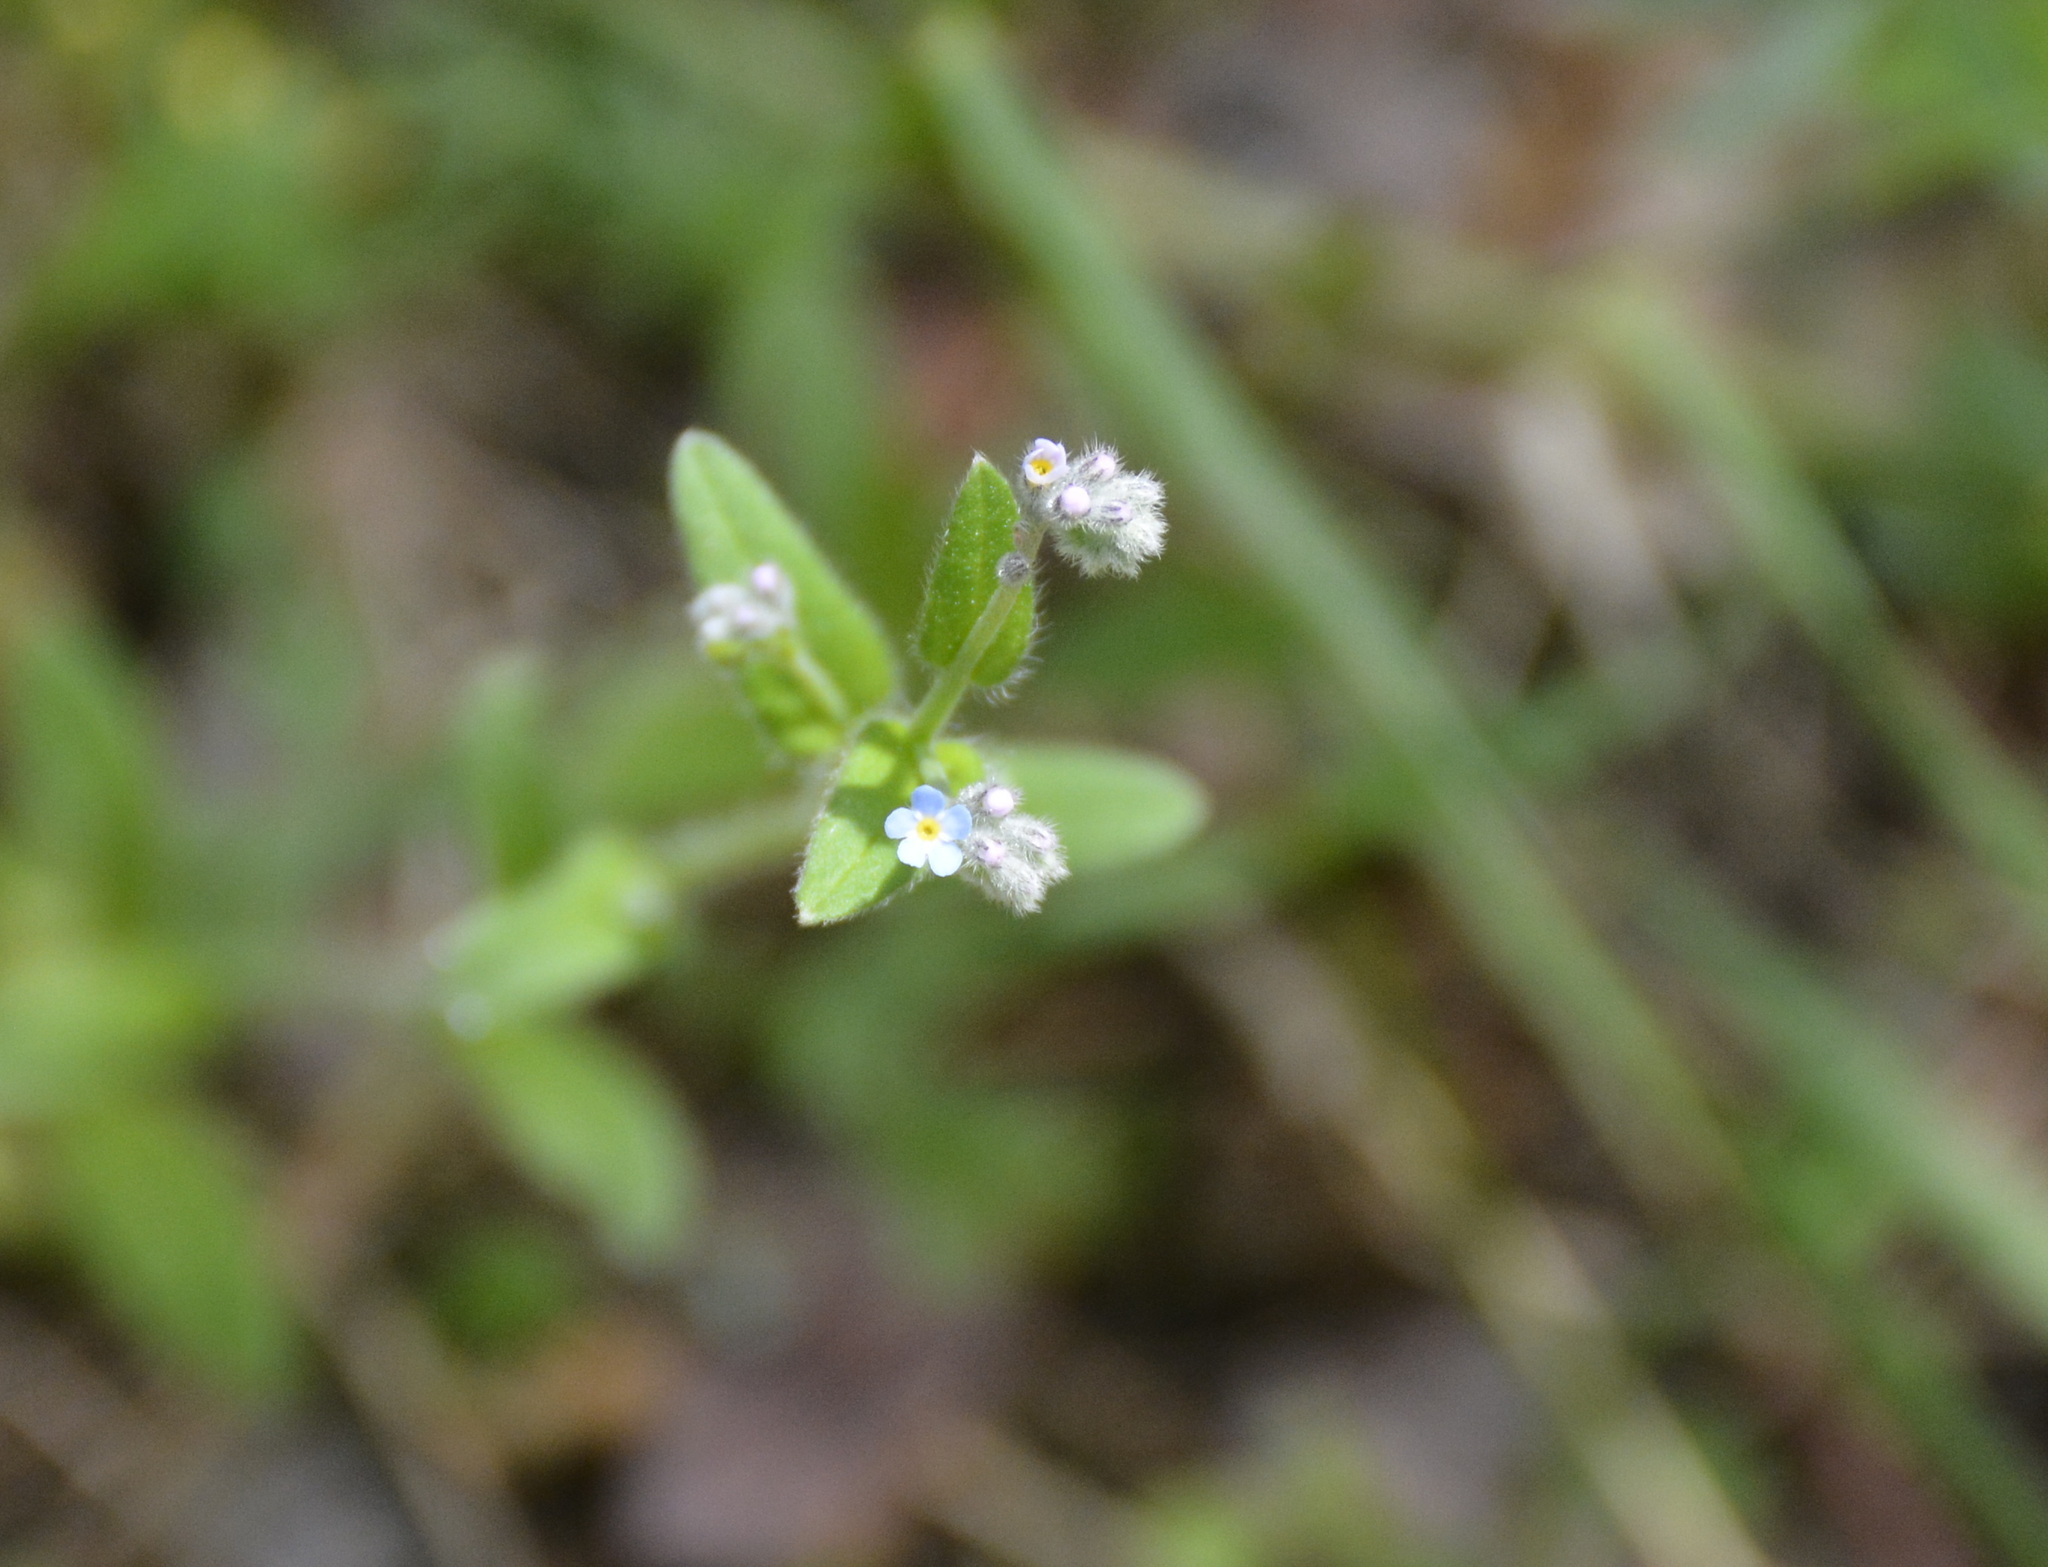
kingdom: Plantae
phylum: Tracheophyta
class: Magnoliopsida
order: Boraginales
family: Boraginaceae
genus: Myosotis
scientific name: Myosotis arvensis
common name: Field forget-me-not
